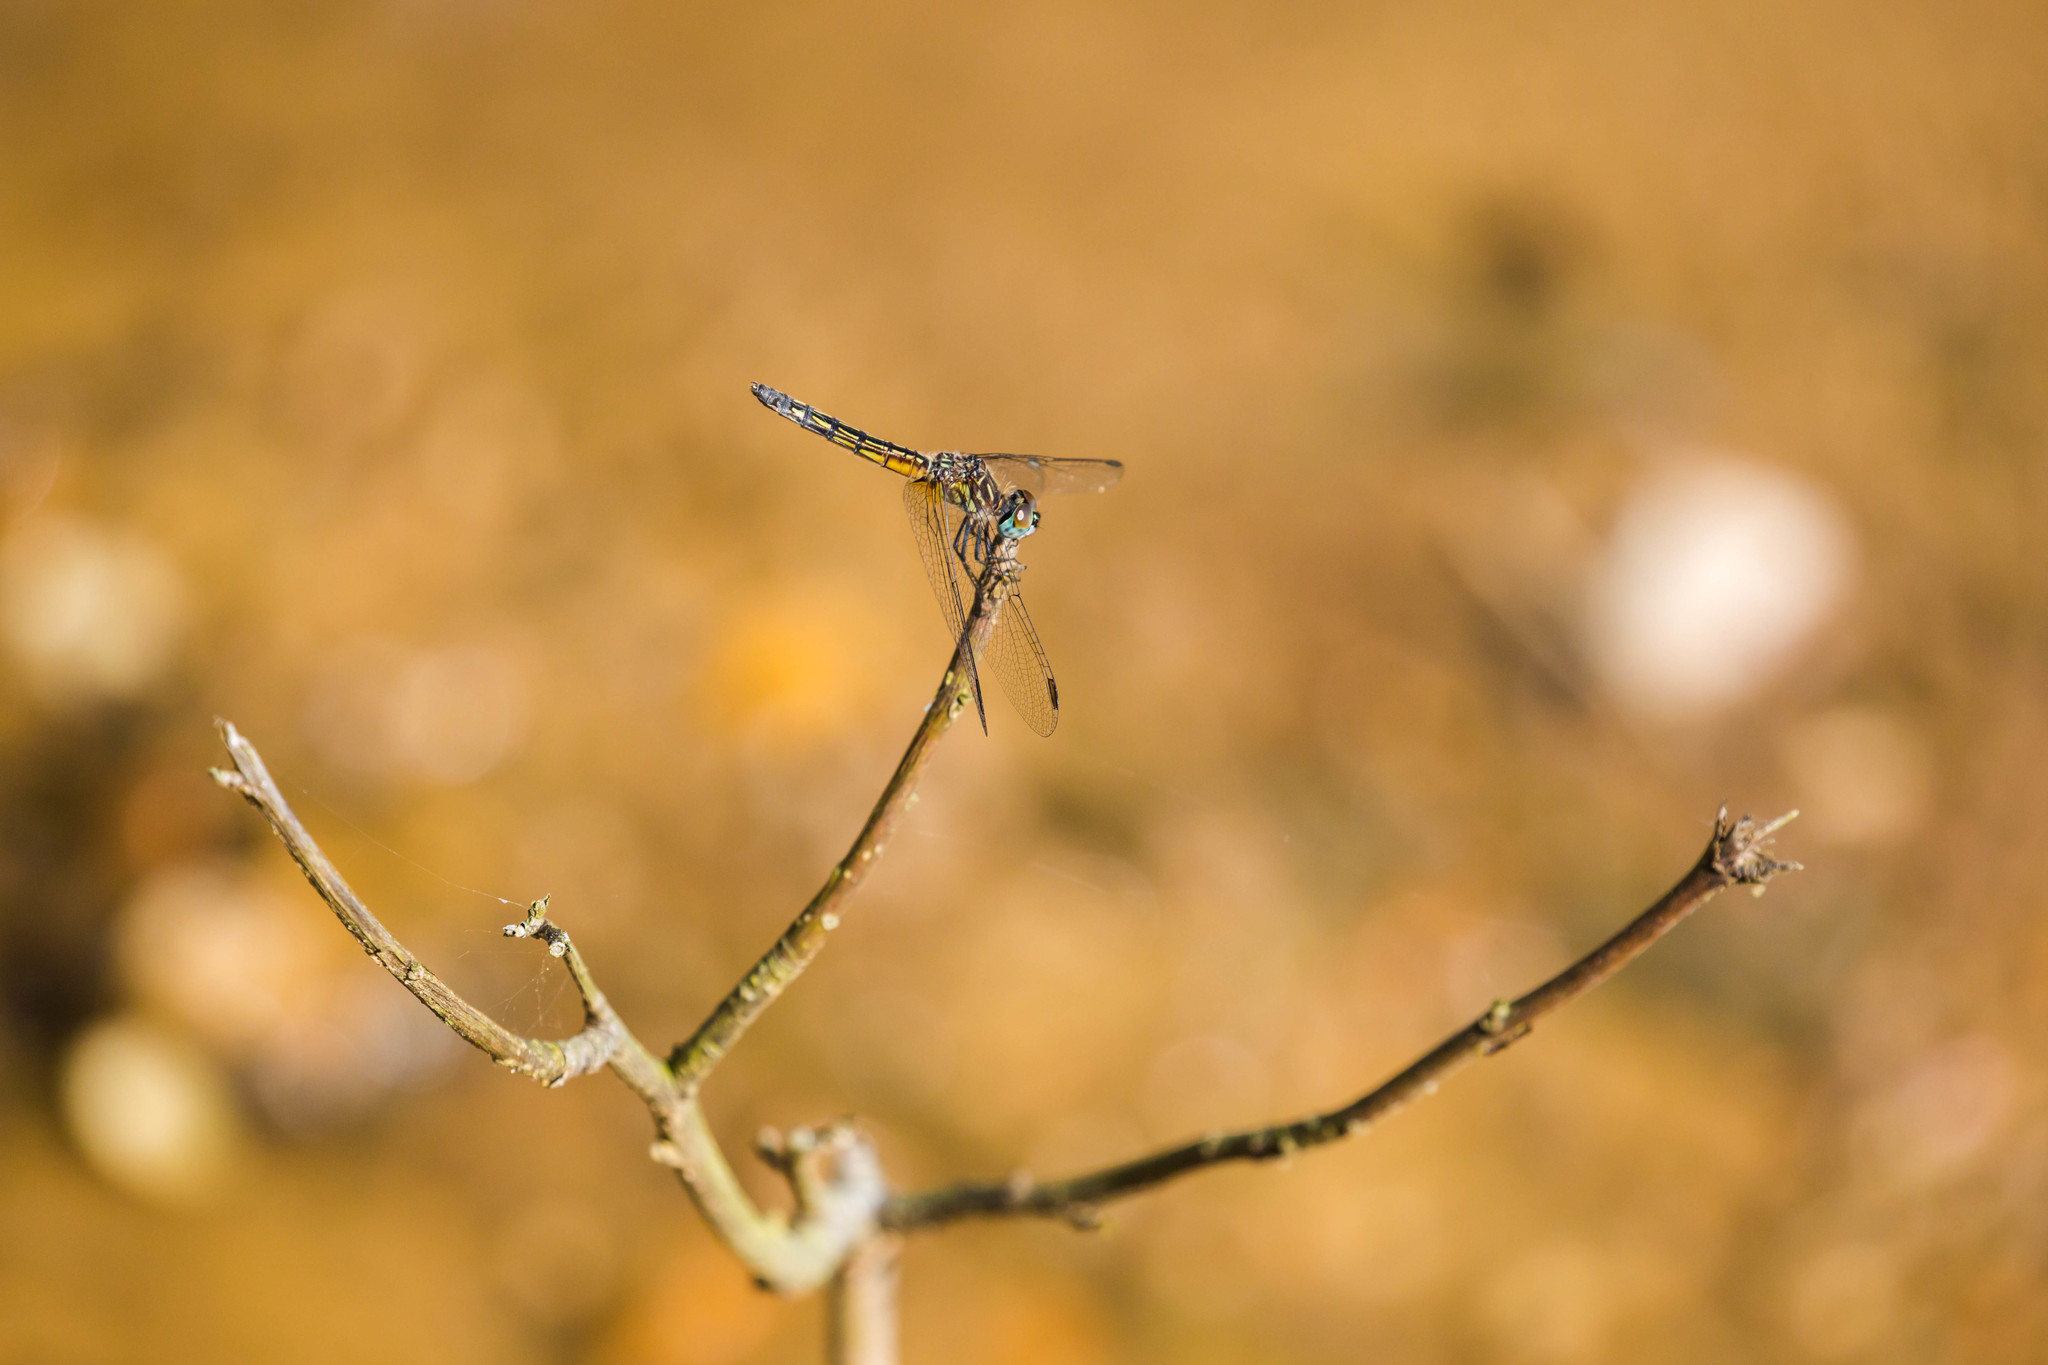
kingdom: Animalia
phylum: Arthropoda
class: Insecta
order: Odonata
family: Libellulidae
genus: Pachydiplax
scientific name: Pachydiplax longipennis
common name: Blue dasher
